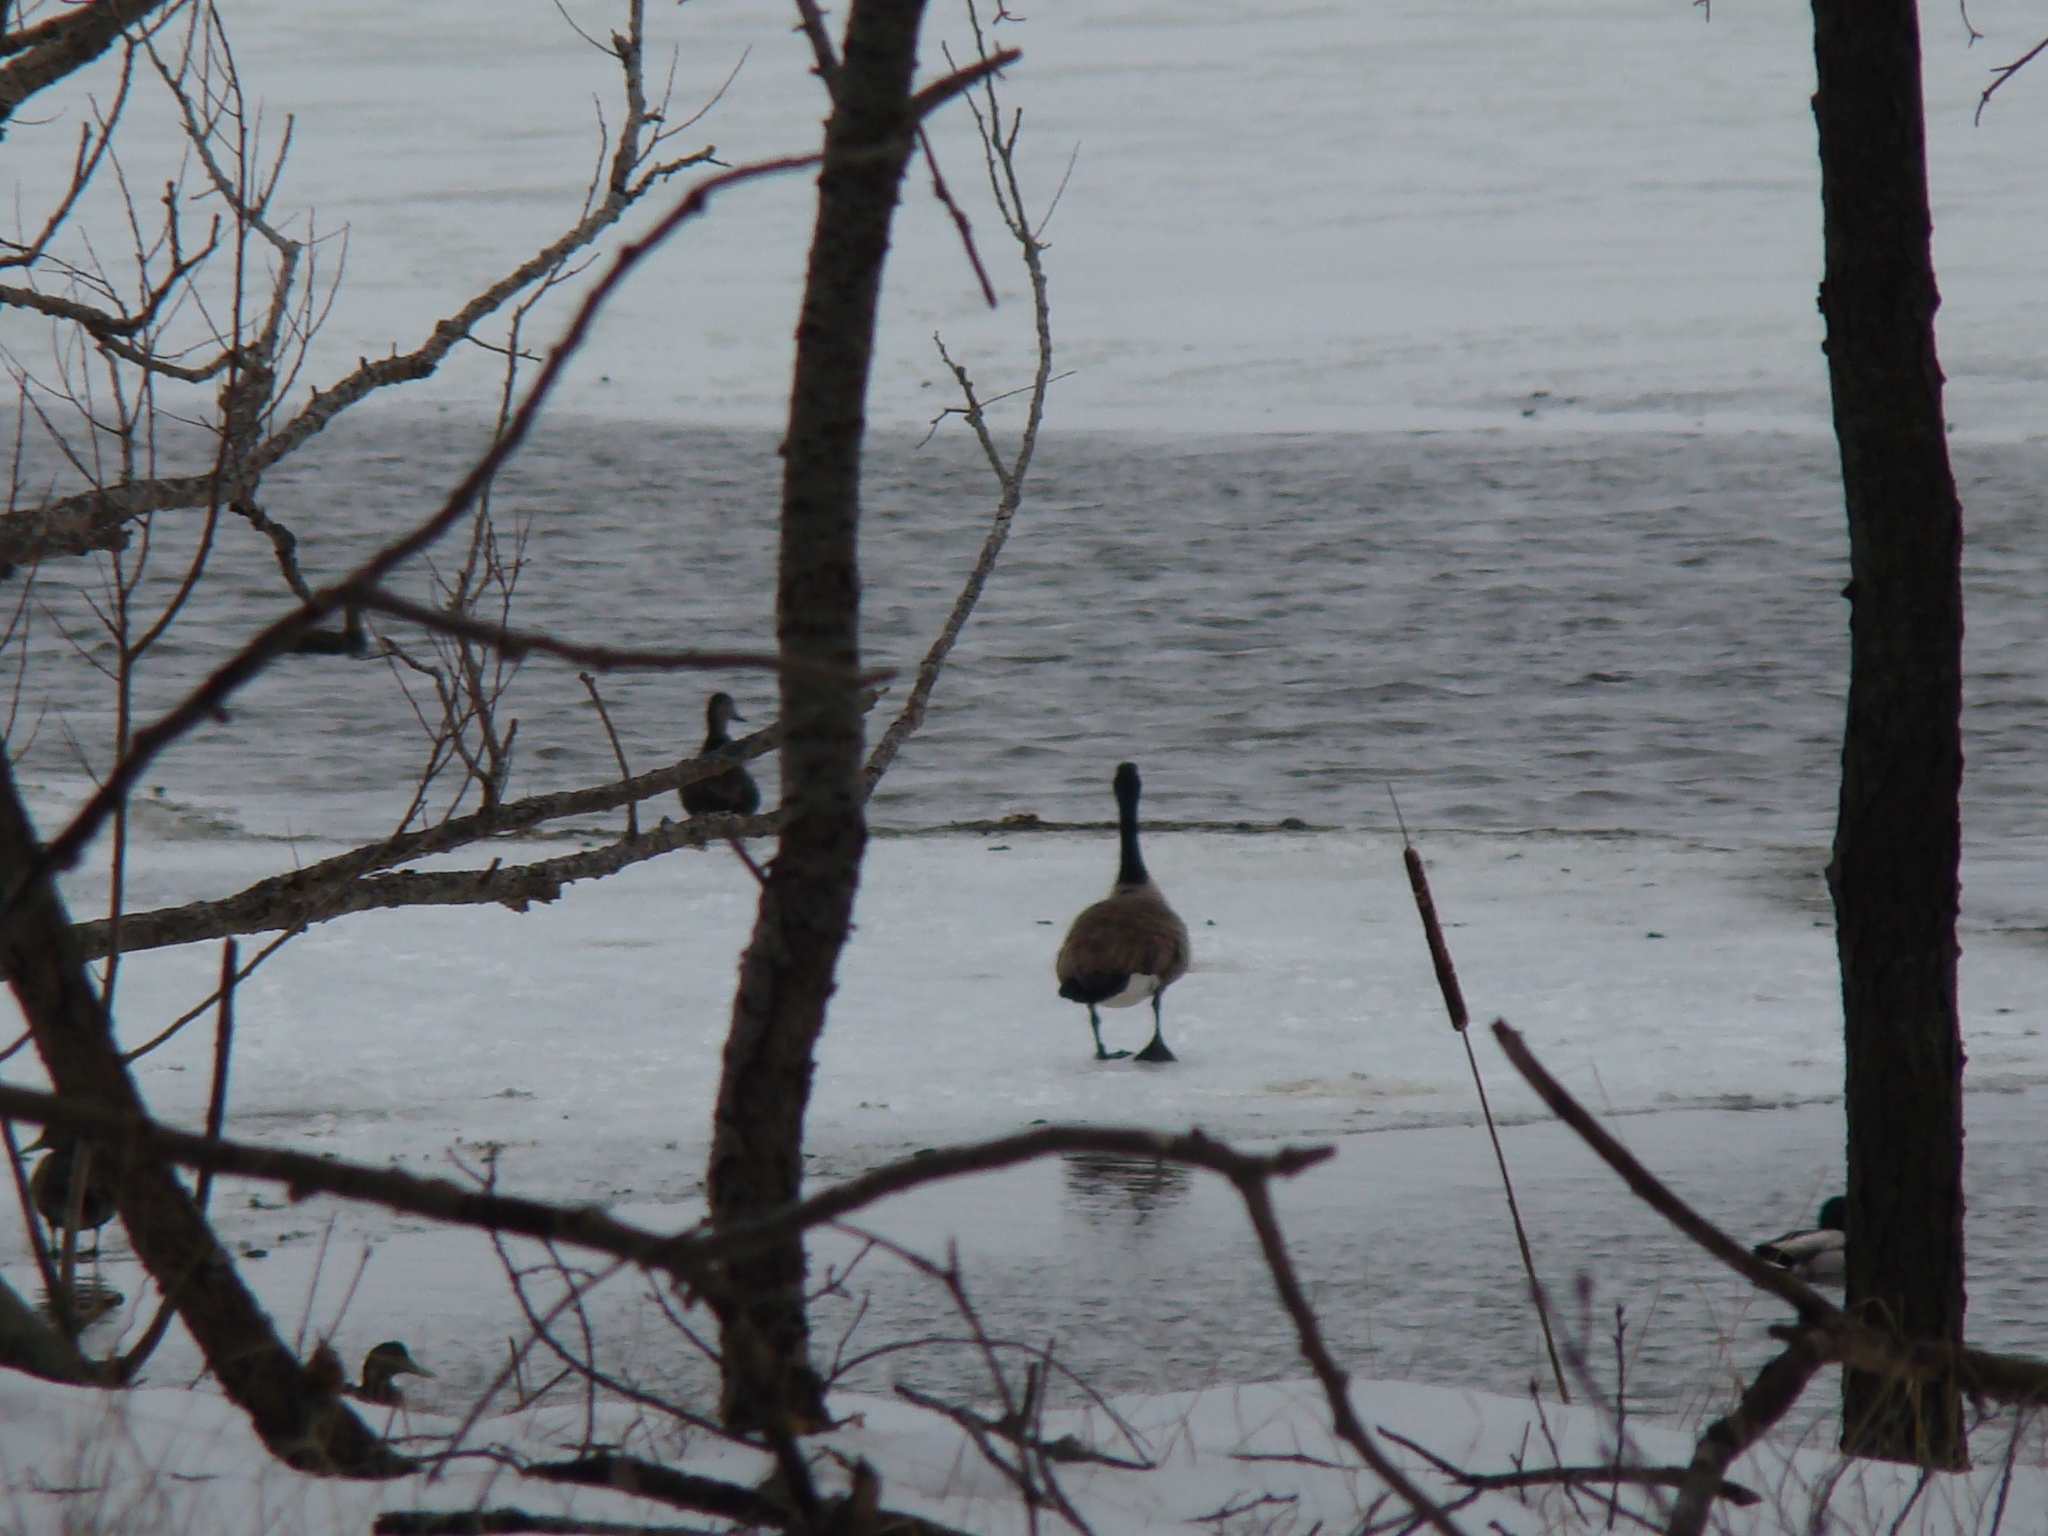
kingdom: Animalia
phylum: Chordata
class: Aves
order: Anseriformes
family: Anatidae
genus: Branta
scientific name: Branta canadensis
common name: Canada goose
